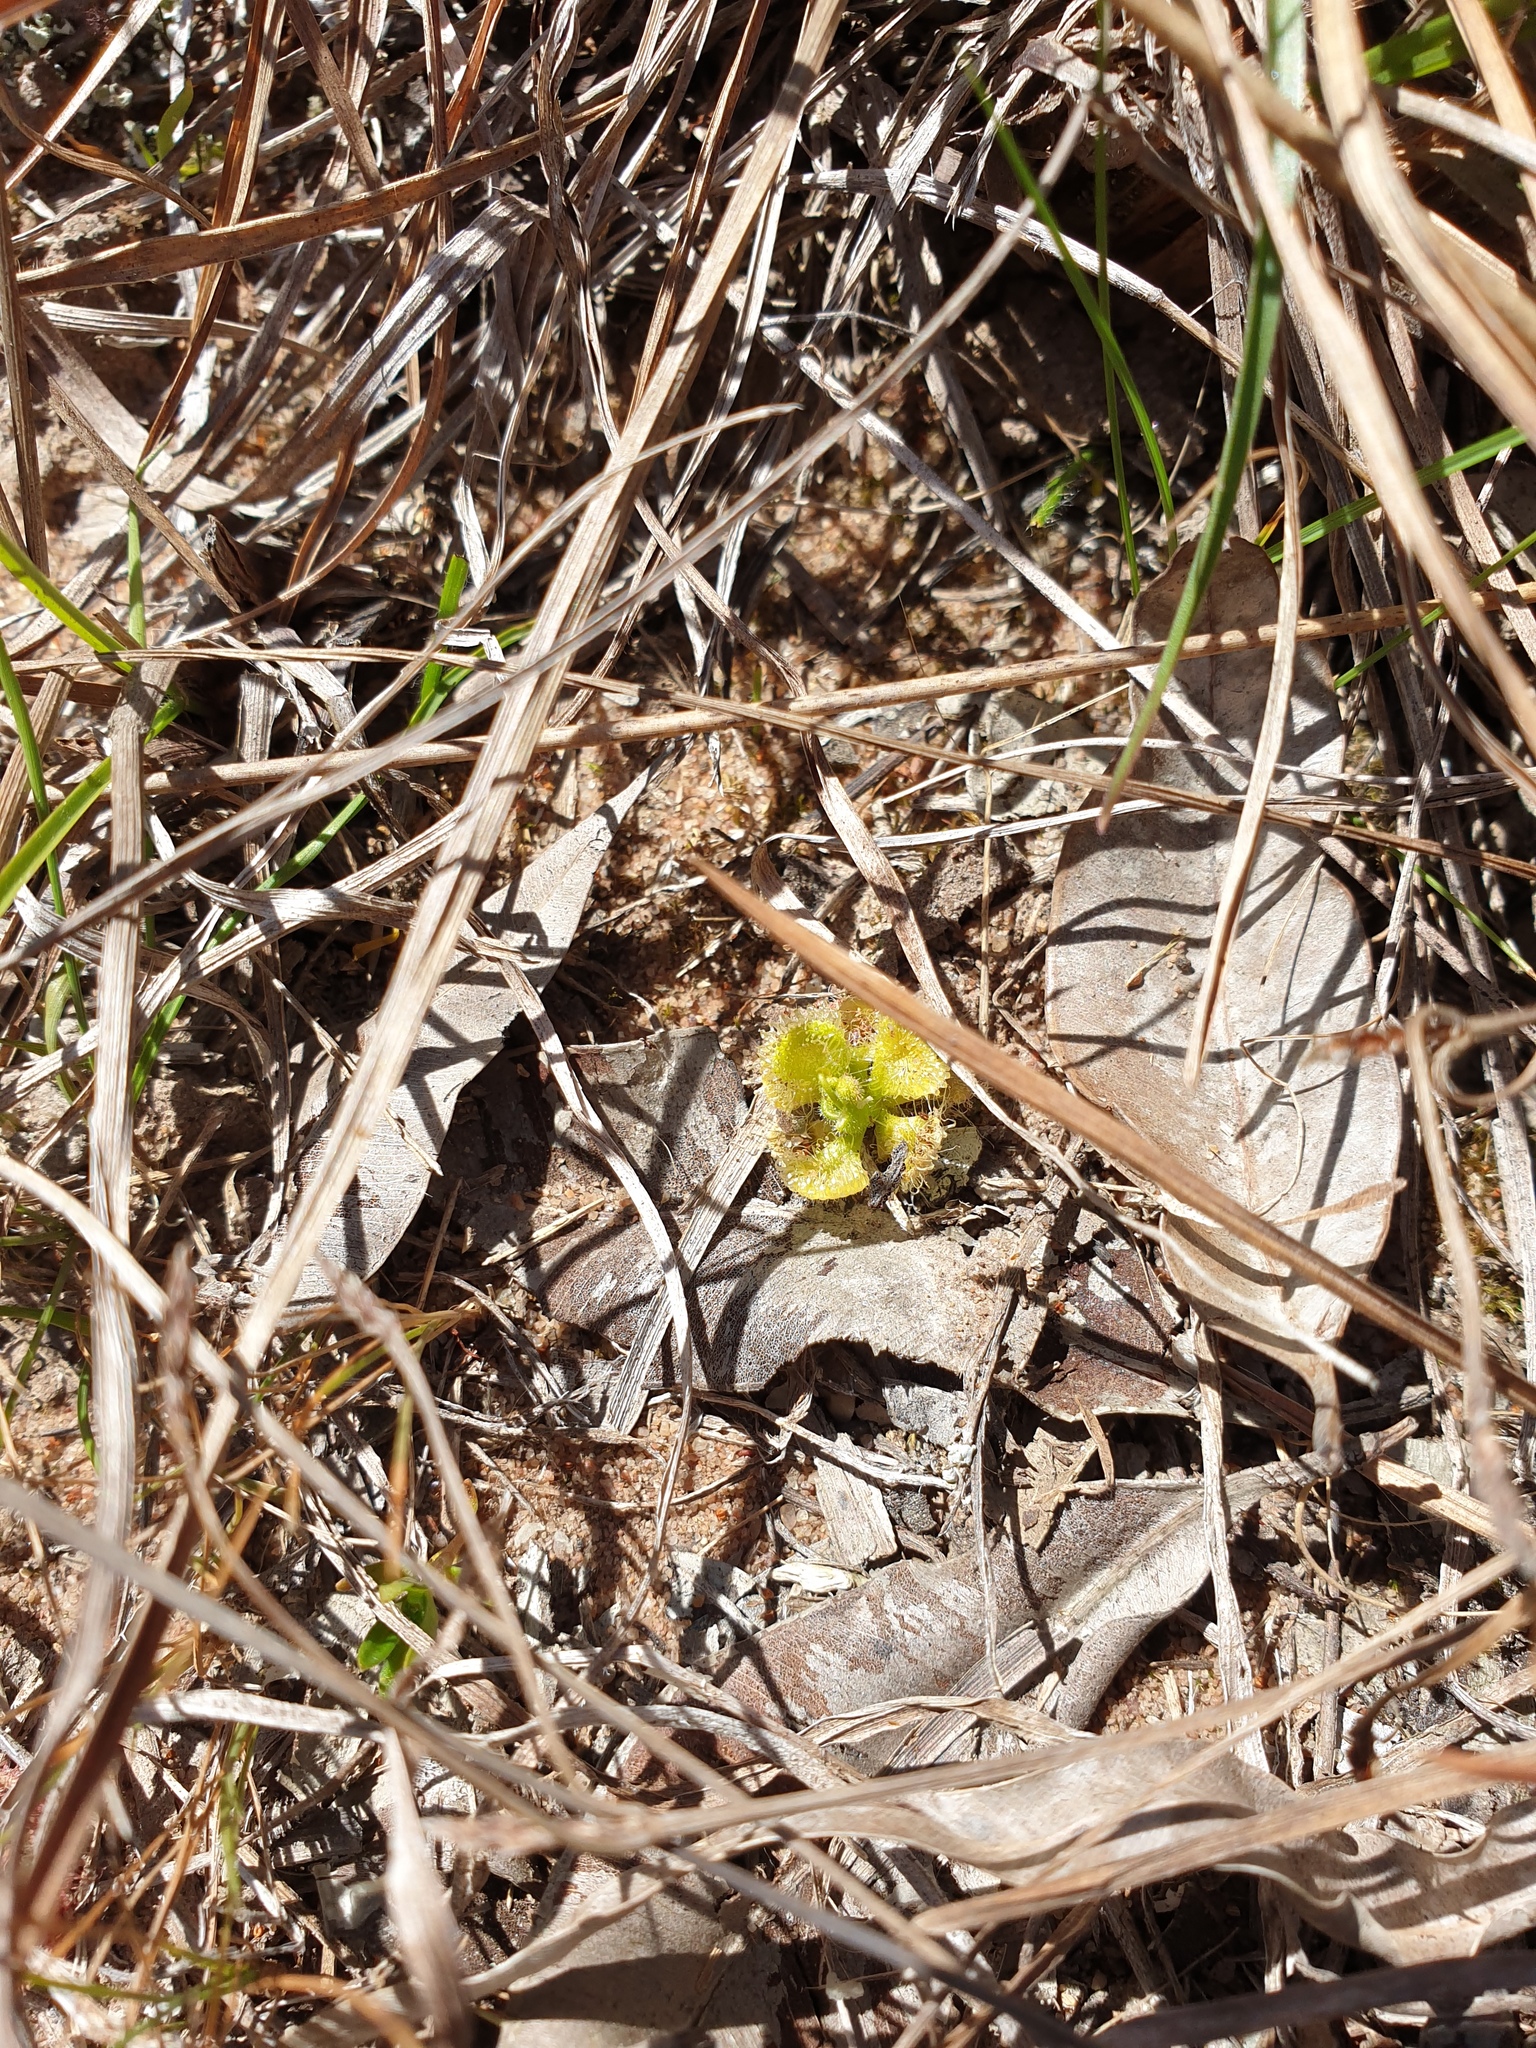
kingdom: Plantae
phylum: Tracheophyta
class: Magnoliopsida
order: Caryophyllales
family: Droseraceae
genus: Drosera
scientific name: Drosera spatulata
